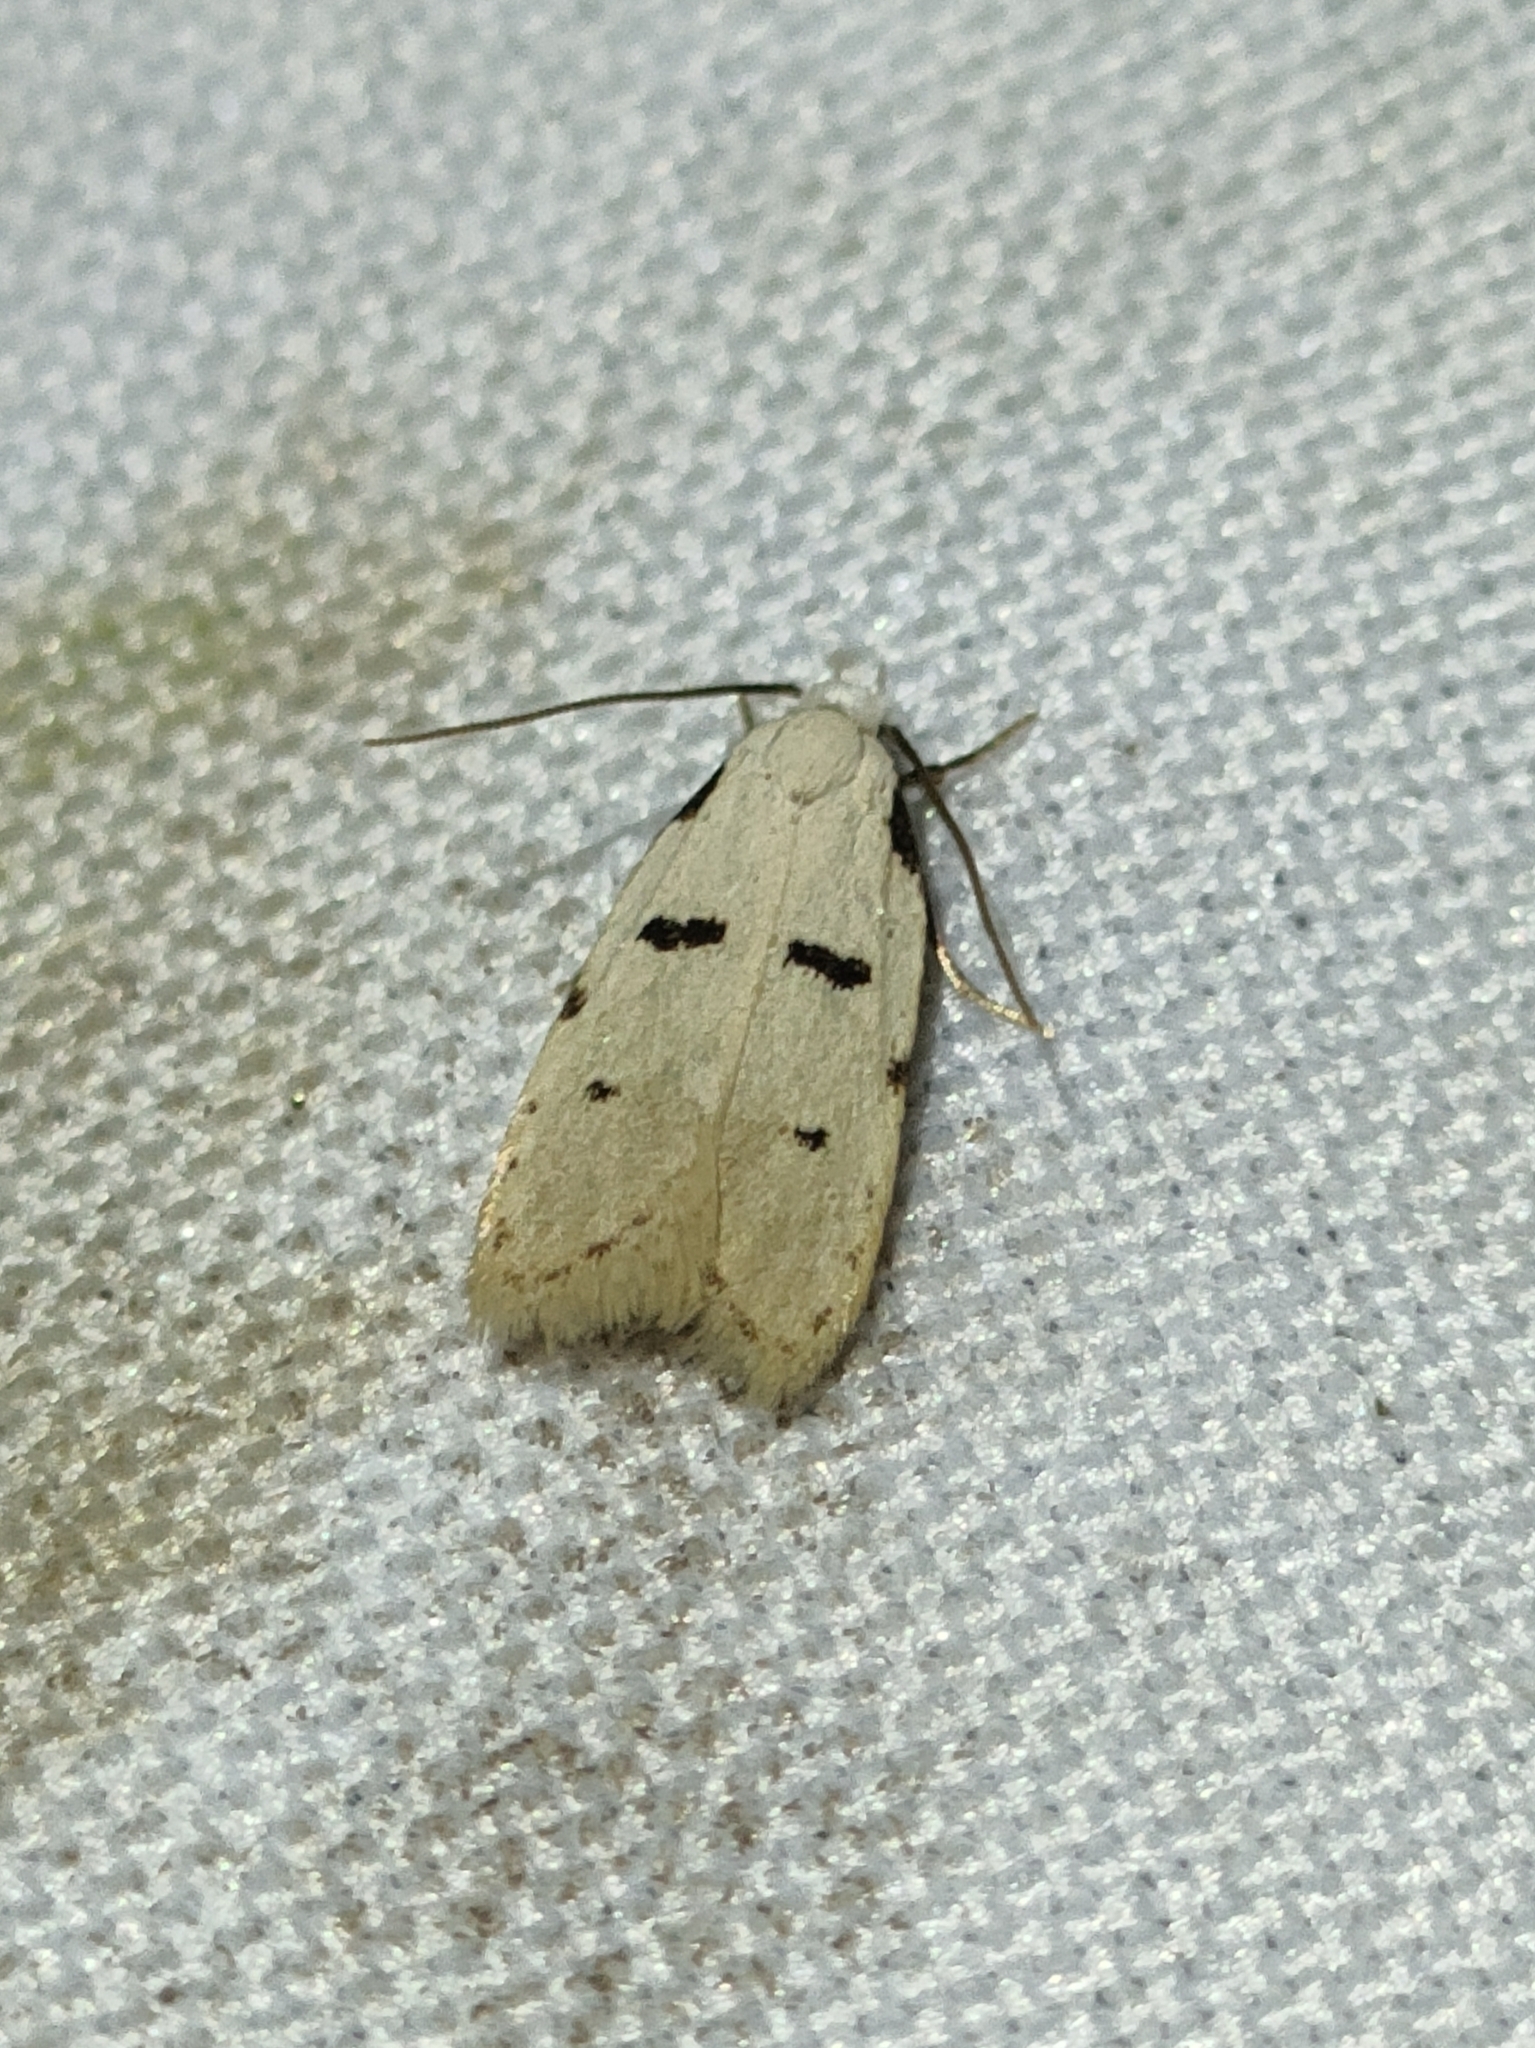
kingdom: Animalia
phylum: Arthropoda
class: Insecta
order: Lepidoptera
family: Autostichidae
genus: Stibaromacha
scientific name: Stibaromacha ratella
